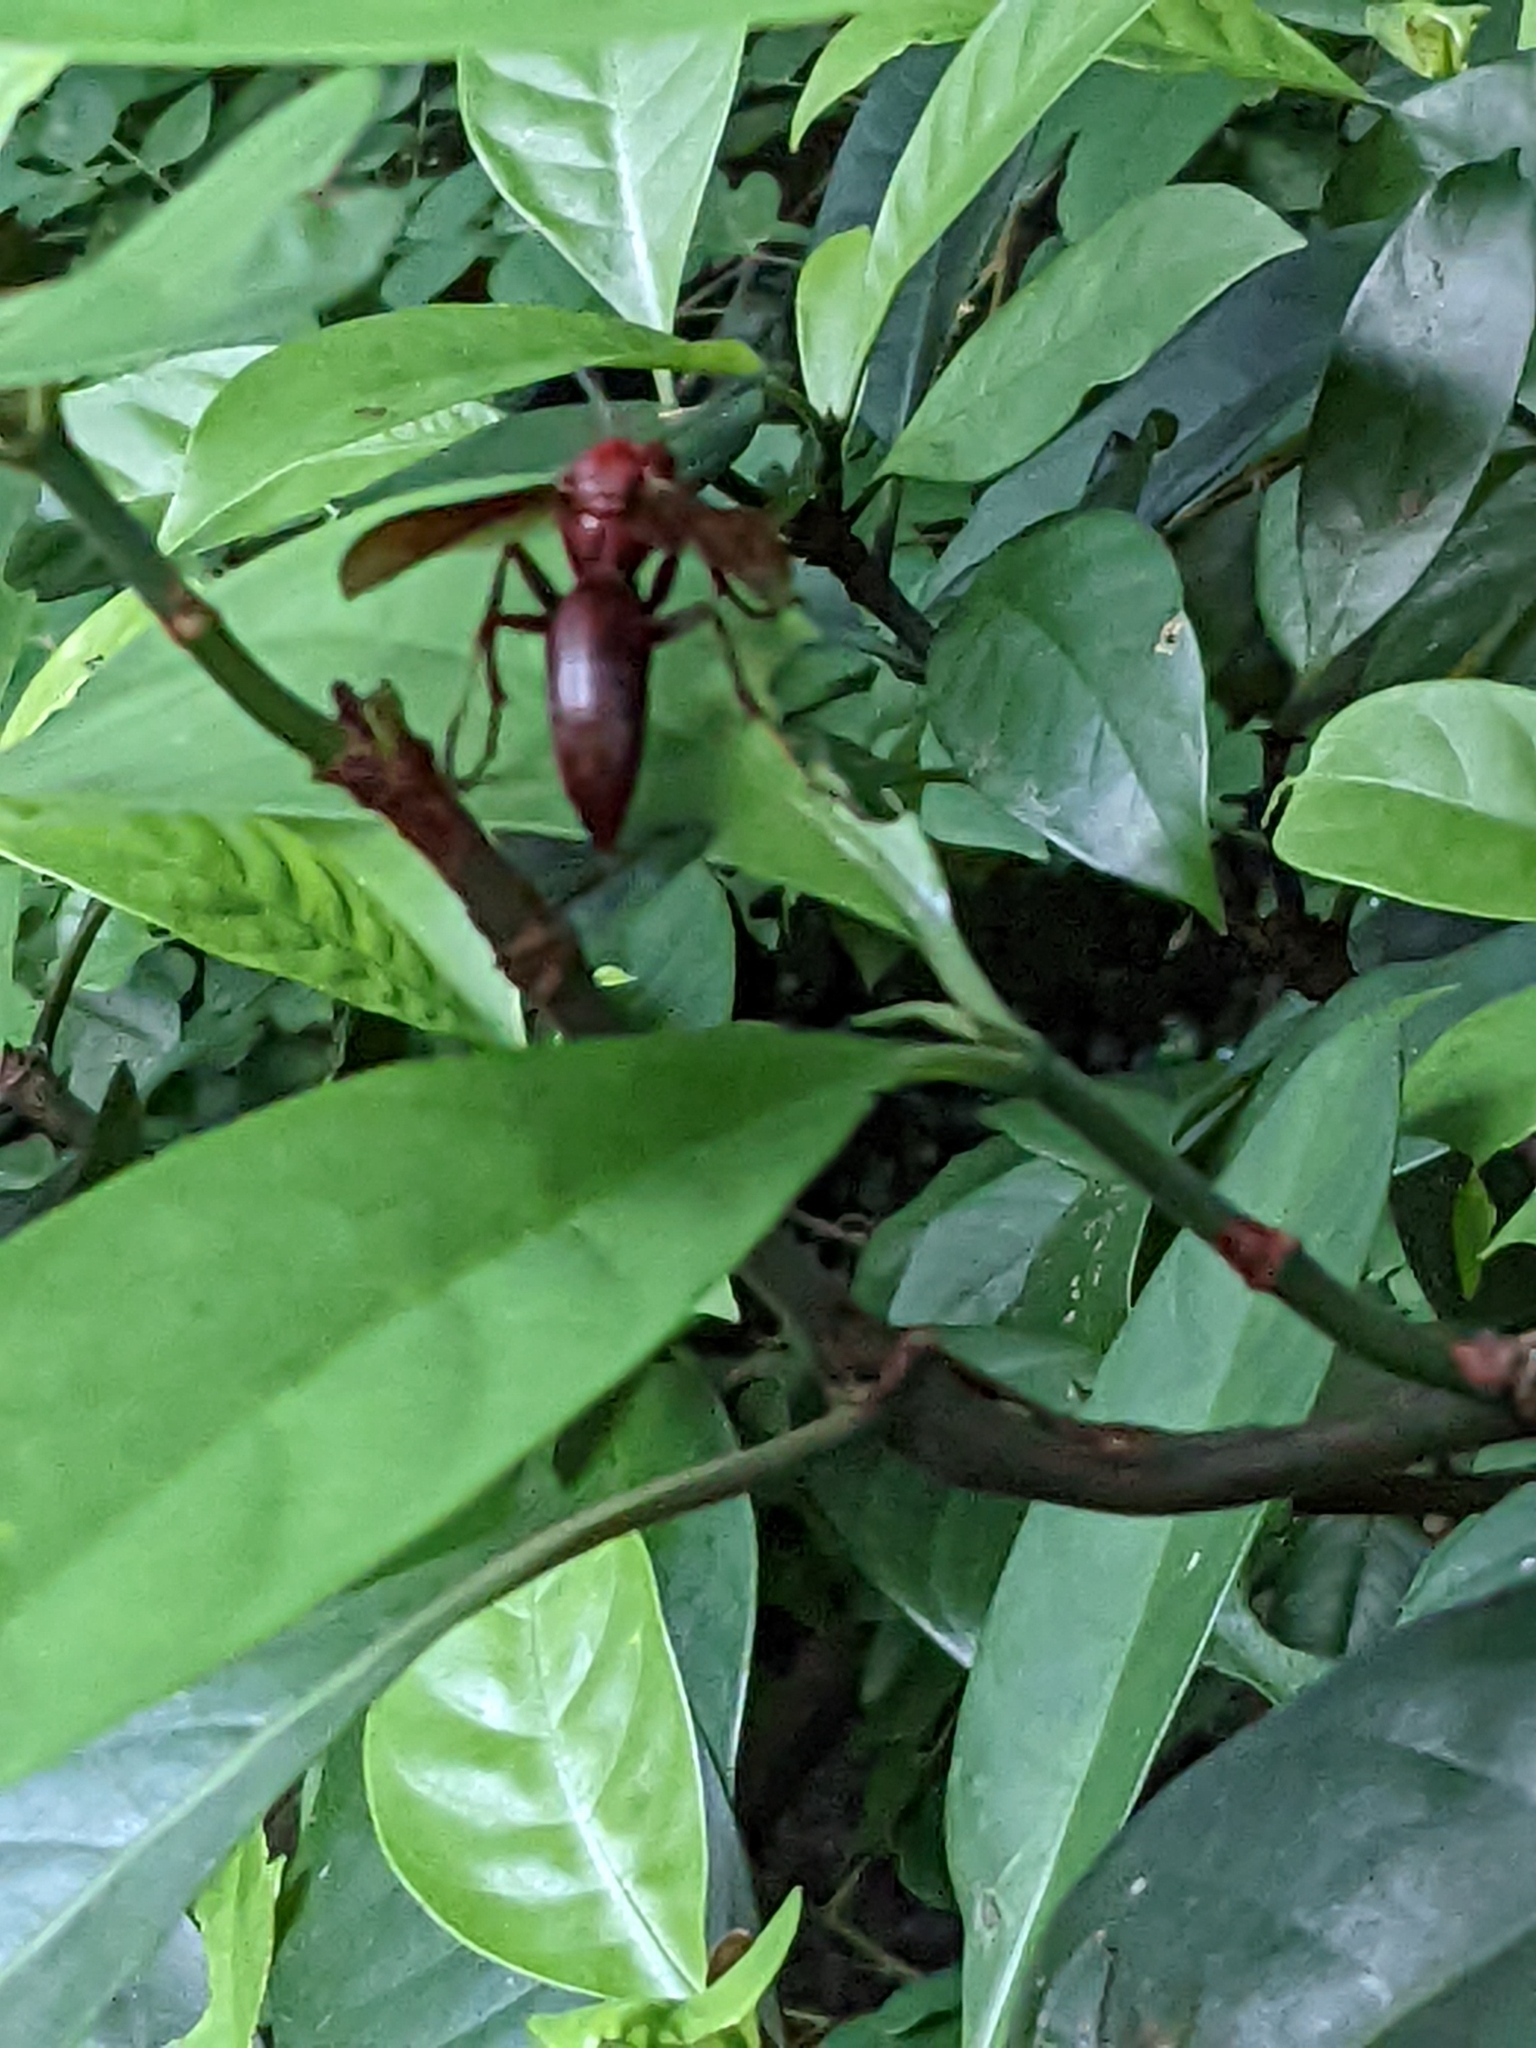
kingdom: Animalia
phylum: Arthropoda
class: Insecta
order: Hymenoptera
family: Eumenidae
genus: Polistes
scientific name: Polistes gigas
